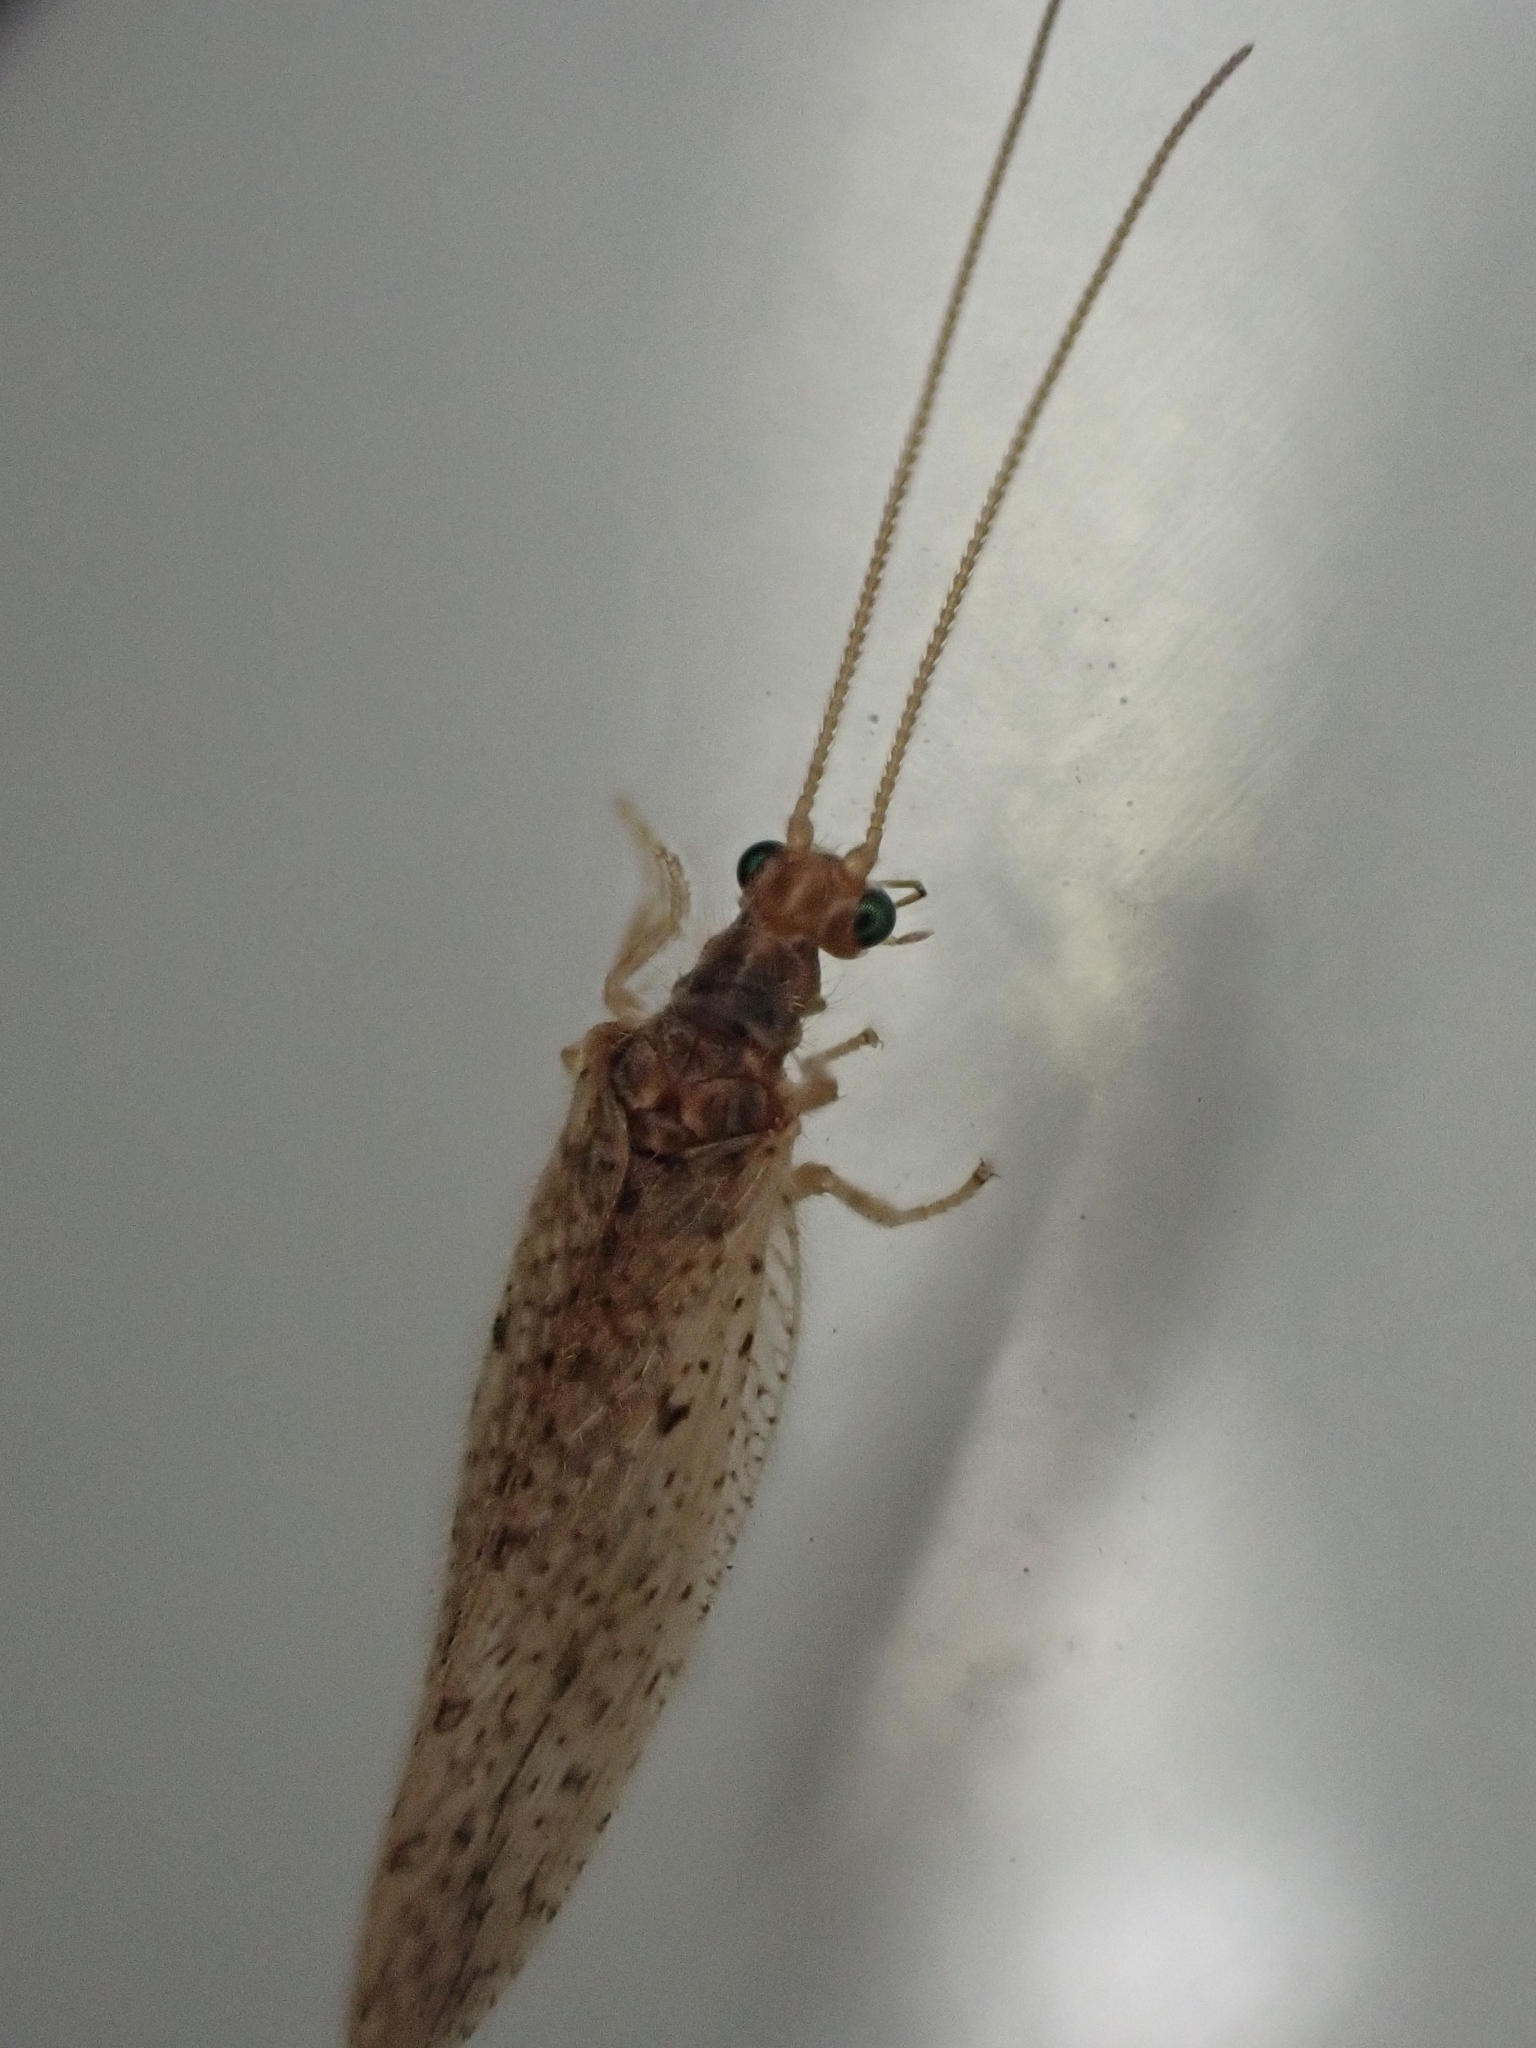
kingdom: Animalia
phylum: Arthropoda
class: Insecta
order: Neuroptera
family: Hemerobiidae
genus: Micromus
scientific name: Micromus subanticus
